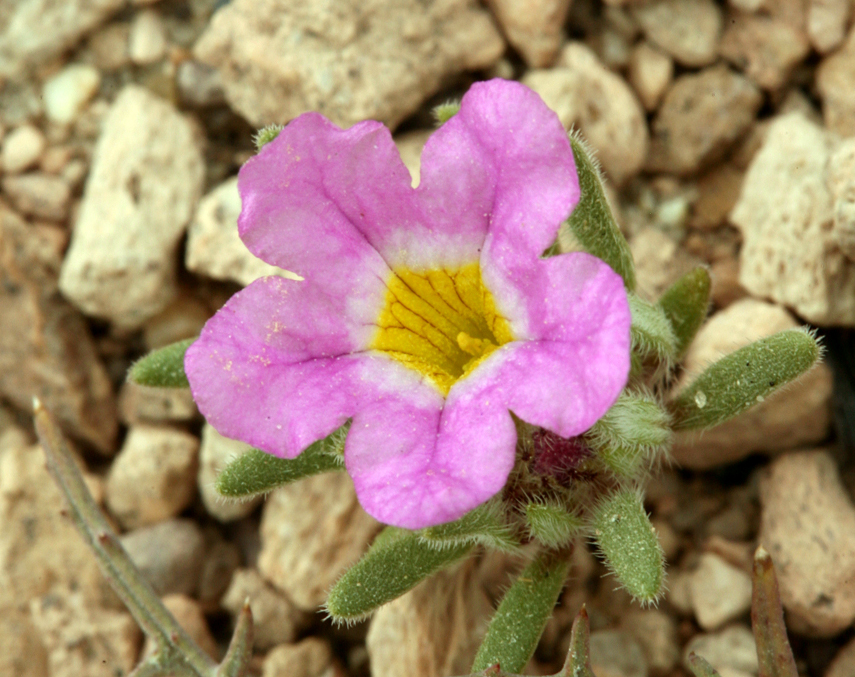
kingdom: Plantae
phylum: Tracheophyta
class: Magnoliopsida
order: Boraginales
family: Namaceae
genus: Nama
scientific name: Nama aretioides
